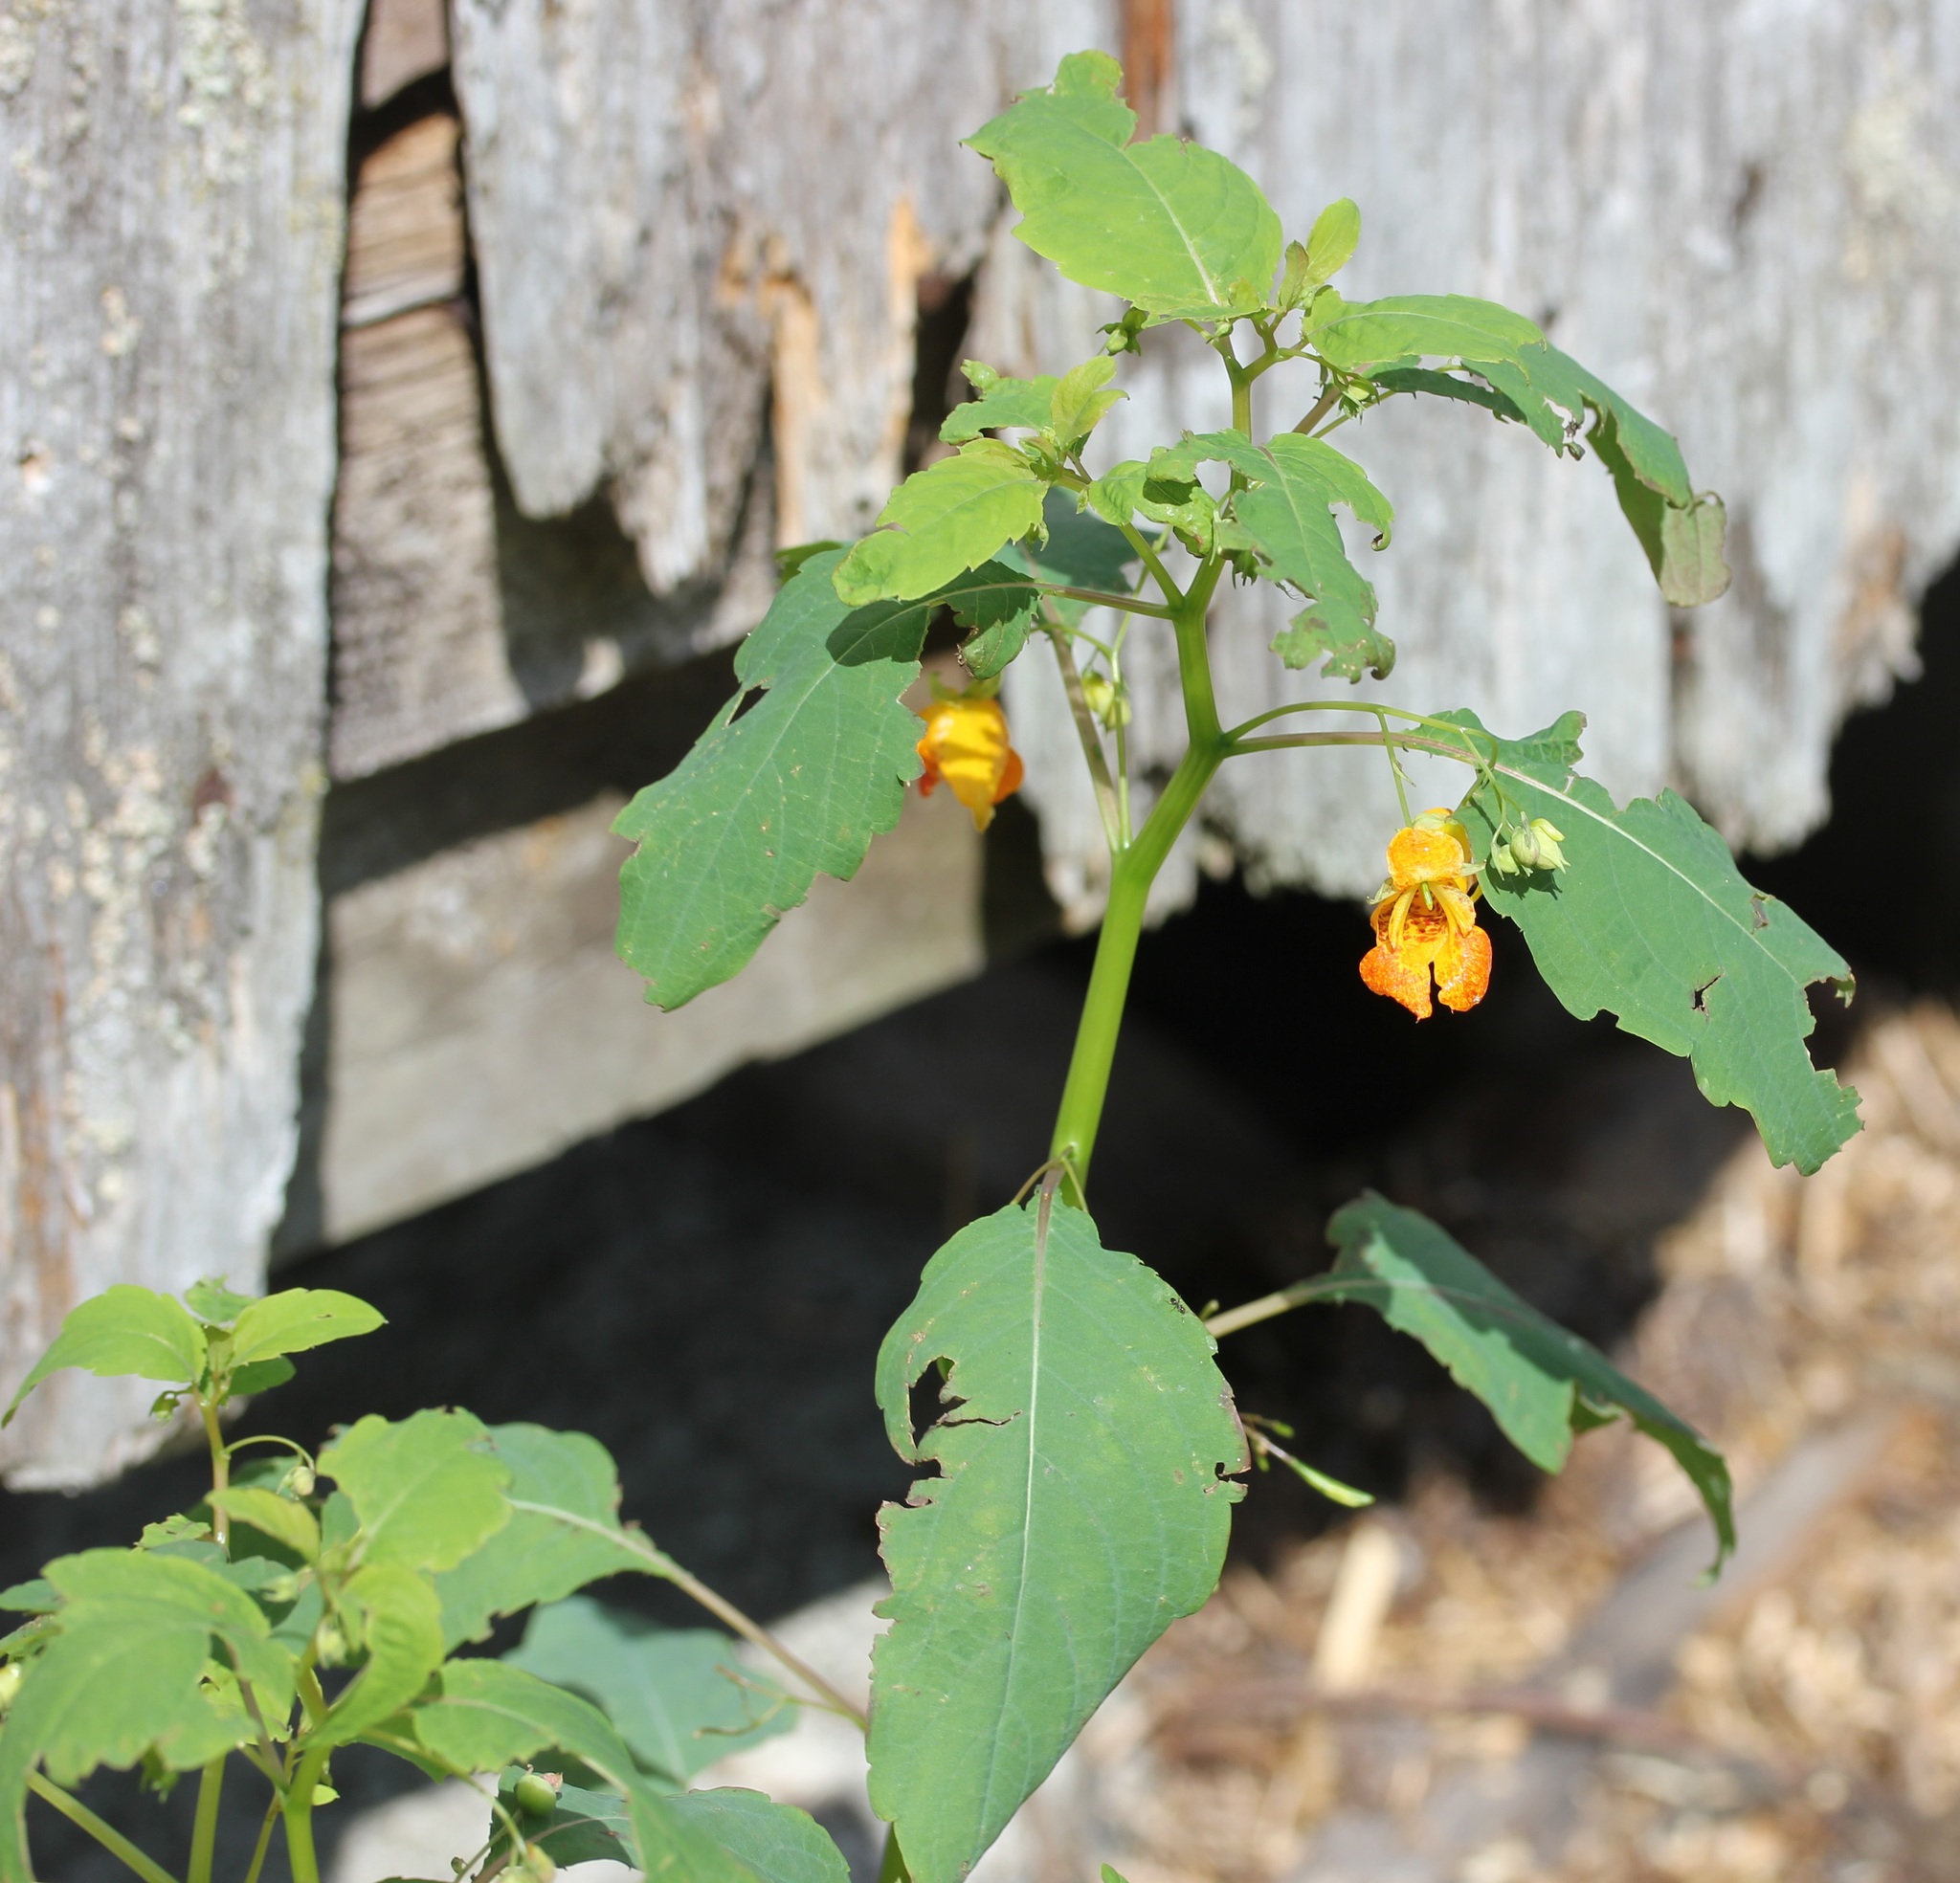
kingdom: Plantae
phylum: Tracheophyta
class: Magnoliopsida
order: Ericales
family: Balsaminaceae
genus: Impatiens
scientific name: Impatiens capensis
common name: Orange balsam
